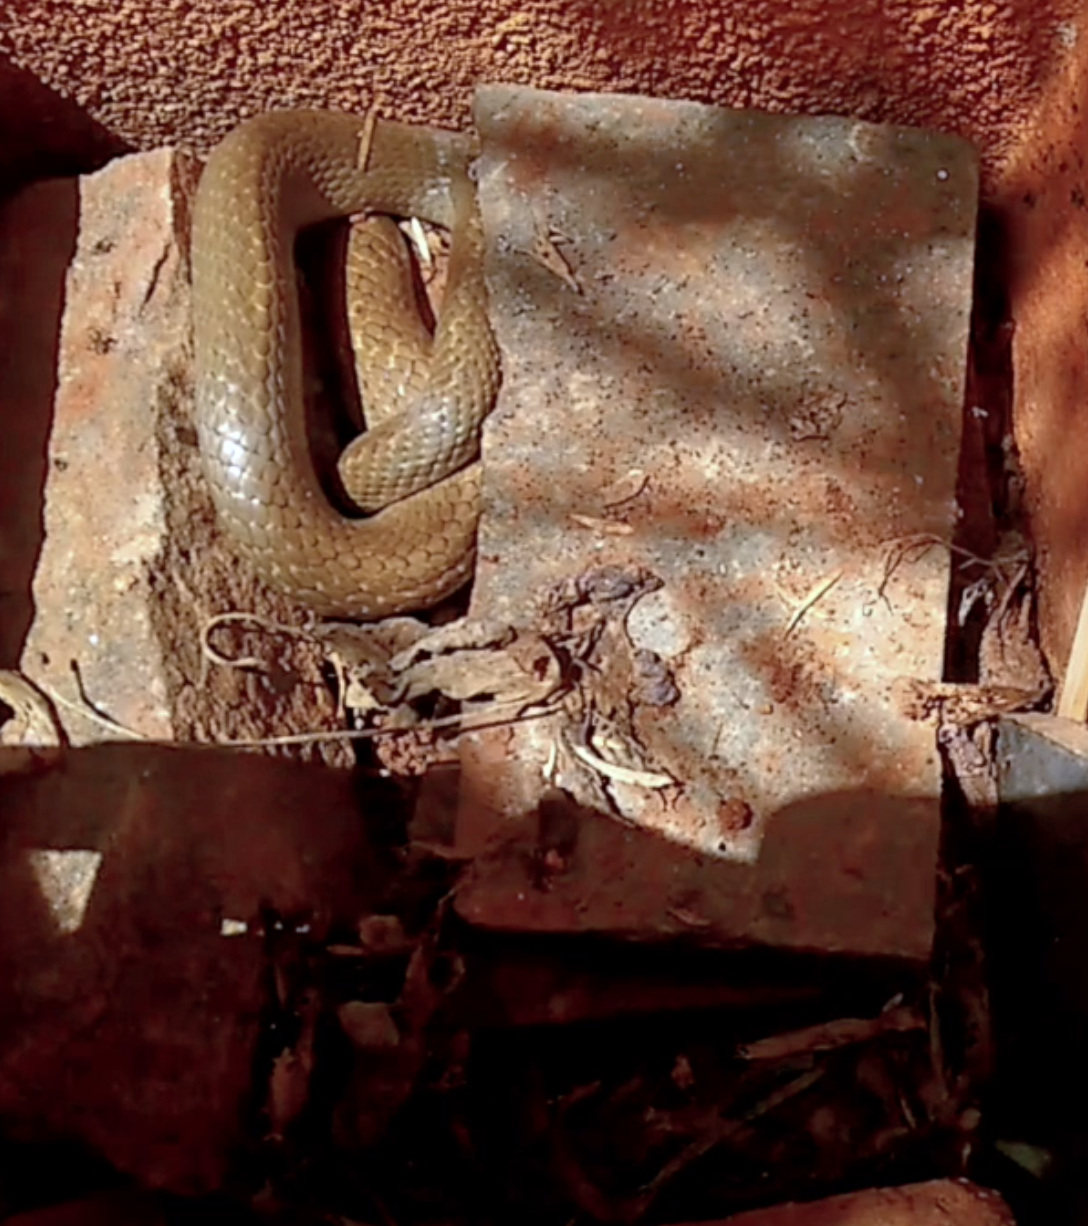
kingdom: Animalia
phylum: Chordata
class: Squamata
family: Colubridae
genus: Ptyas
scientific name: Ptyas mucosa
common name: Oriental ratsnake
